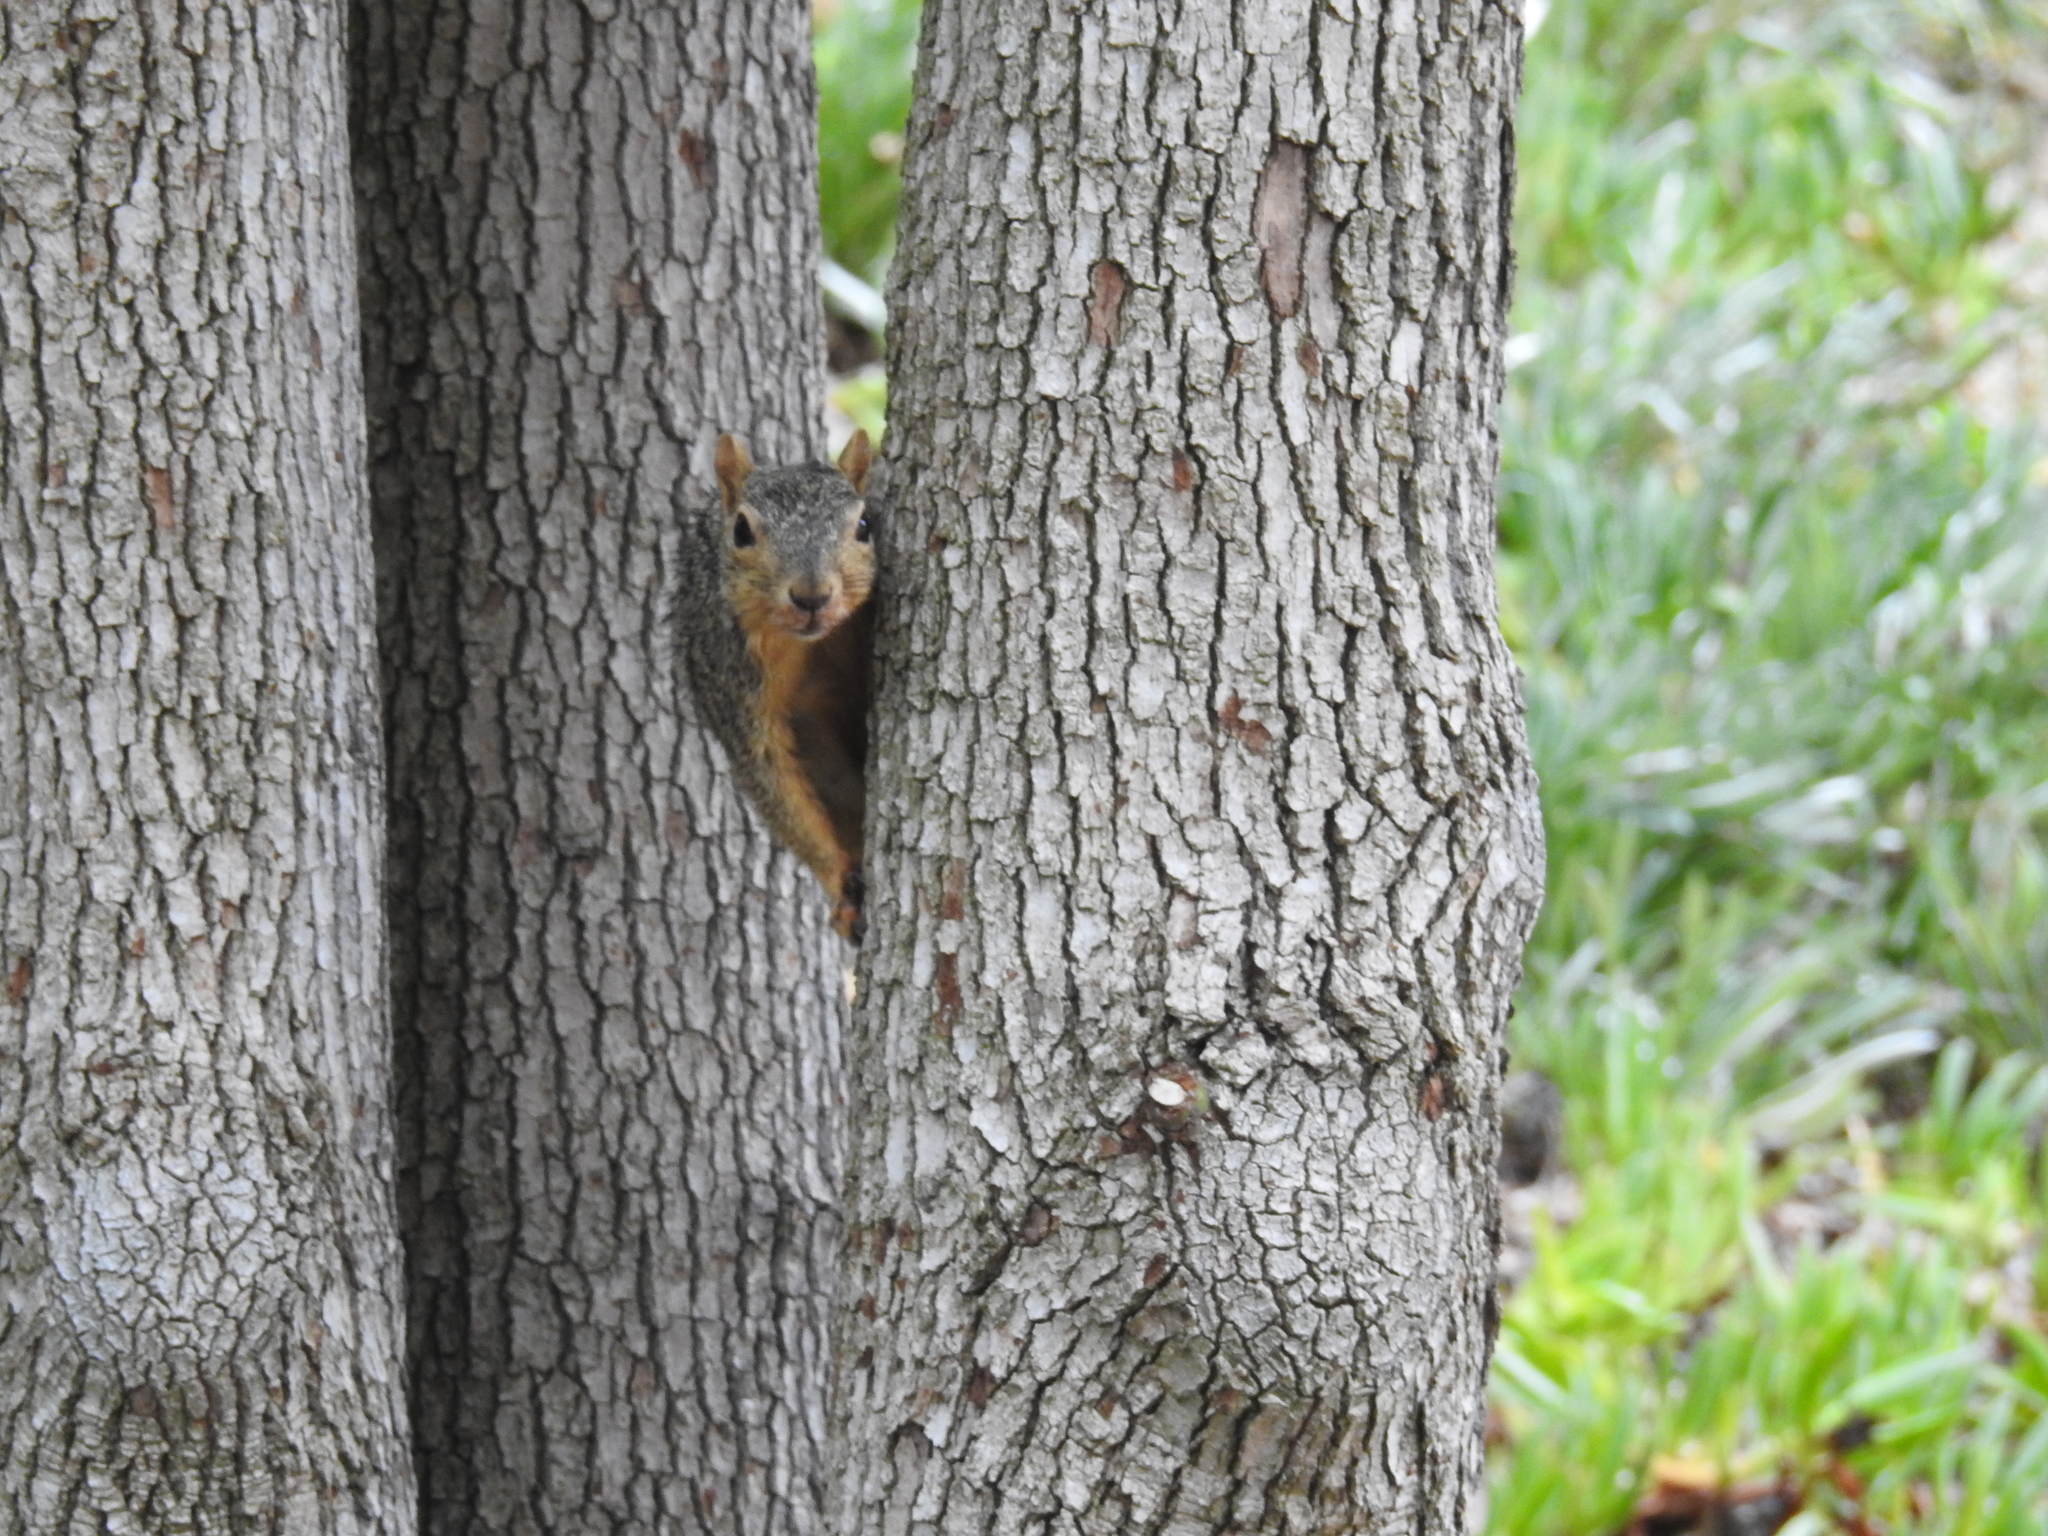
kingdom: Animalia
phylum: Chordata
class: Mammalia
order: Rodentia
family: Sciuridae
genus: Sciurus
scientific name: Sciurus niger
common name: Fox squirrel
